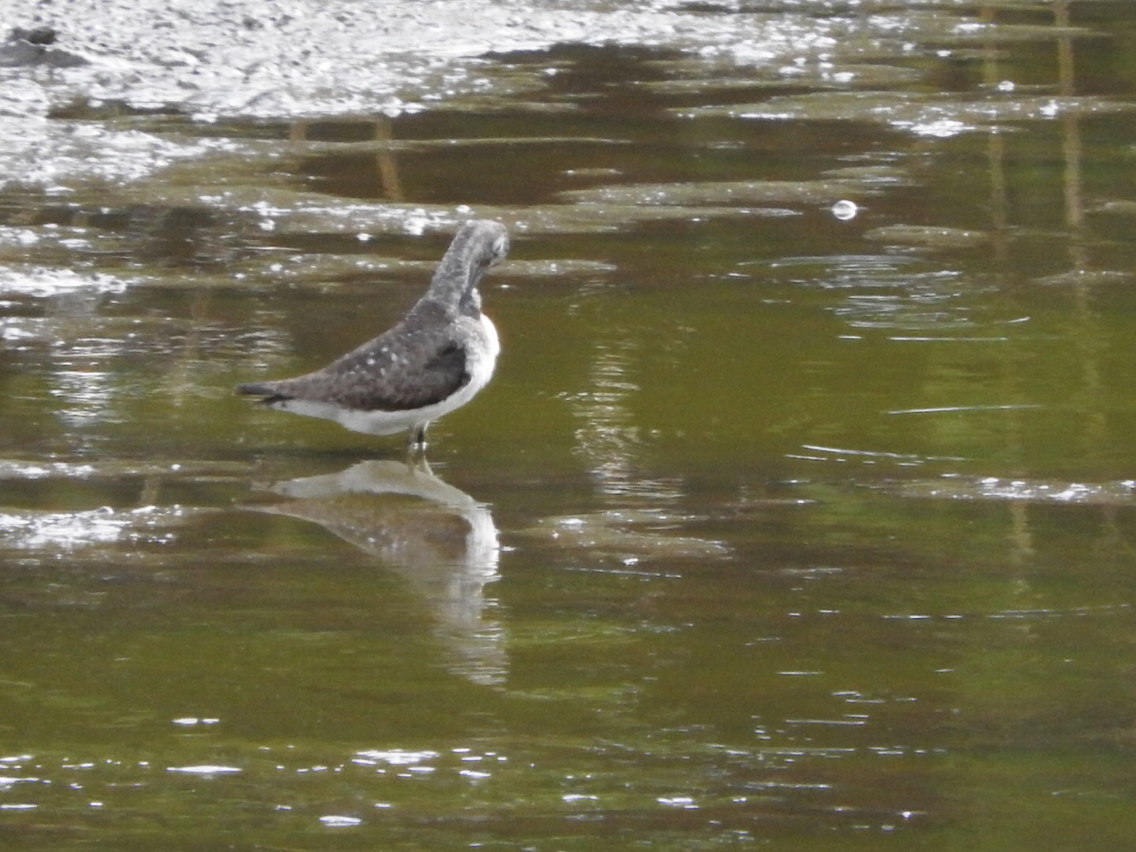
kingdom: Animalia
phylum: Chordata
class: Aves
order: Charadriiformes
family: Scolopacidae
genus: Tringa
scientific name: Tringa solitaria
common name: Solitary sandpiper
